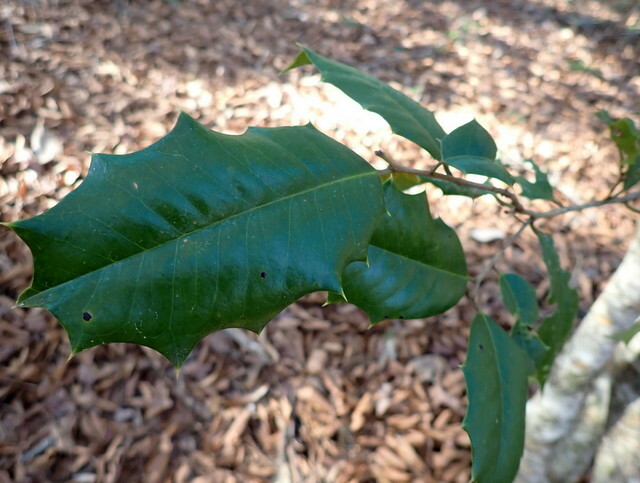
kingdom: Plantae
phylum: Tracheophyta
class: Magnoliopsida
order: Aquifoliales
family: Aquifoliaceae
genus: Ilex
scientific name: Ilex opaca
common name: American holly
